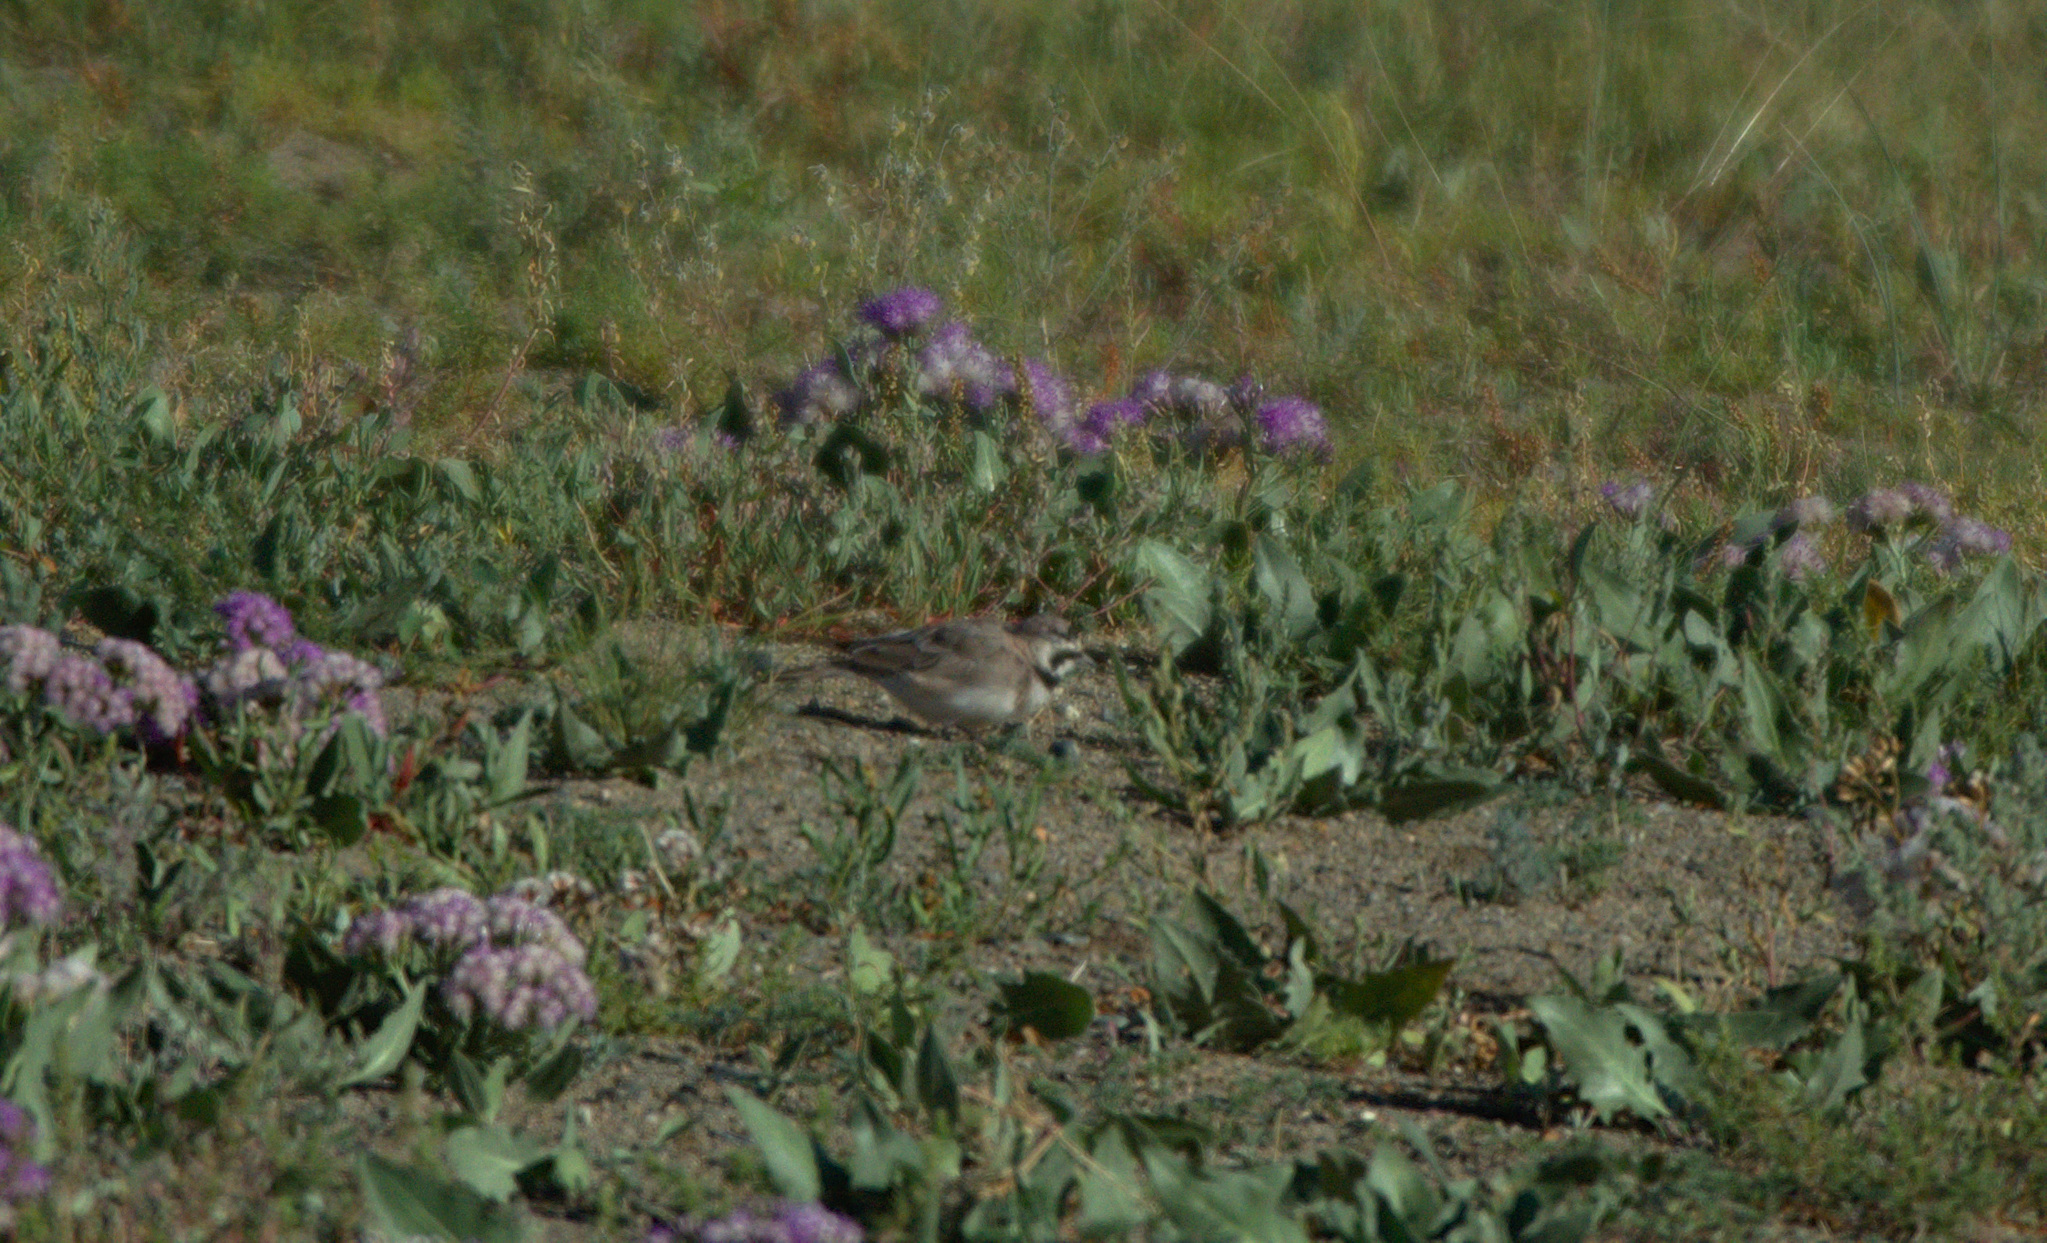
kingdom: Animalia
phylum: Chordata
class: Aves
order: Passeriformes
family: Alaudidae
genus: Eremophila
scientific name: Eremophila alpestris
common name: Horned lark
